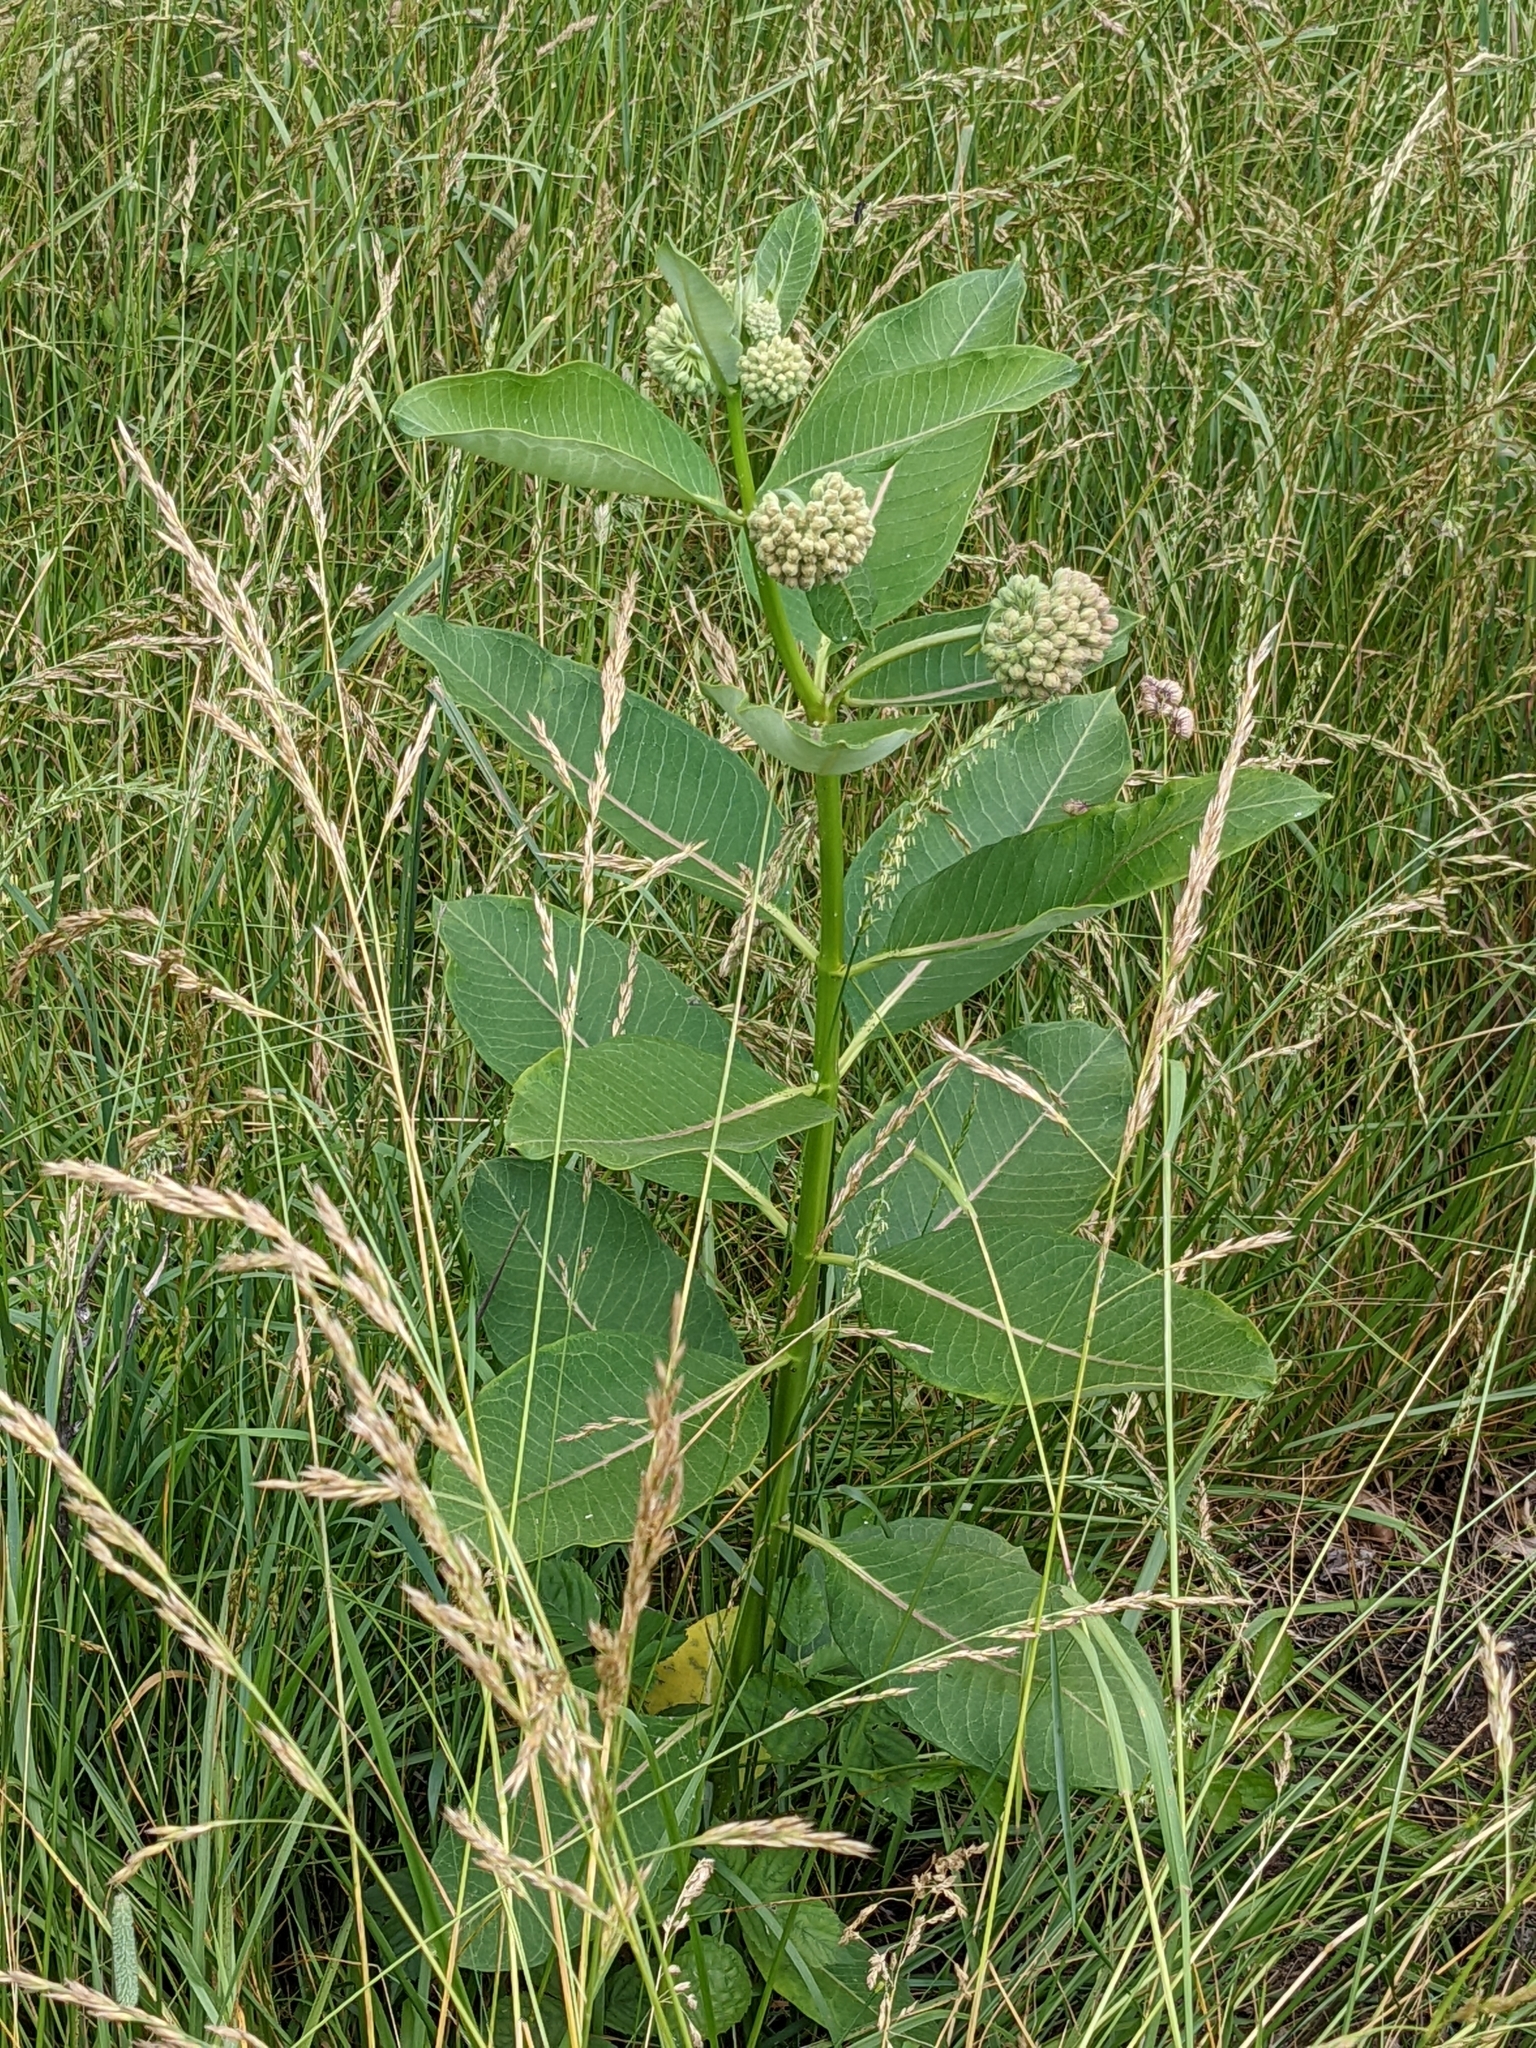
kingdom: Plantae
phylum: Tracheophyta
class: Magnoliopsida
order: Gentianales
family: Apocynaceae
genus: Asclepias
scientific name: Asclepias syriaca
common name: Common milkweed
